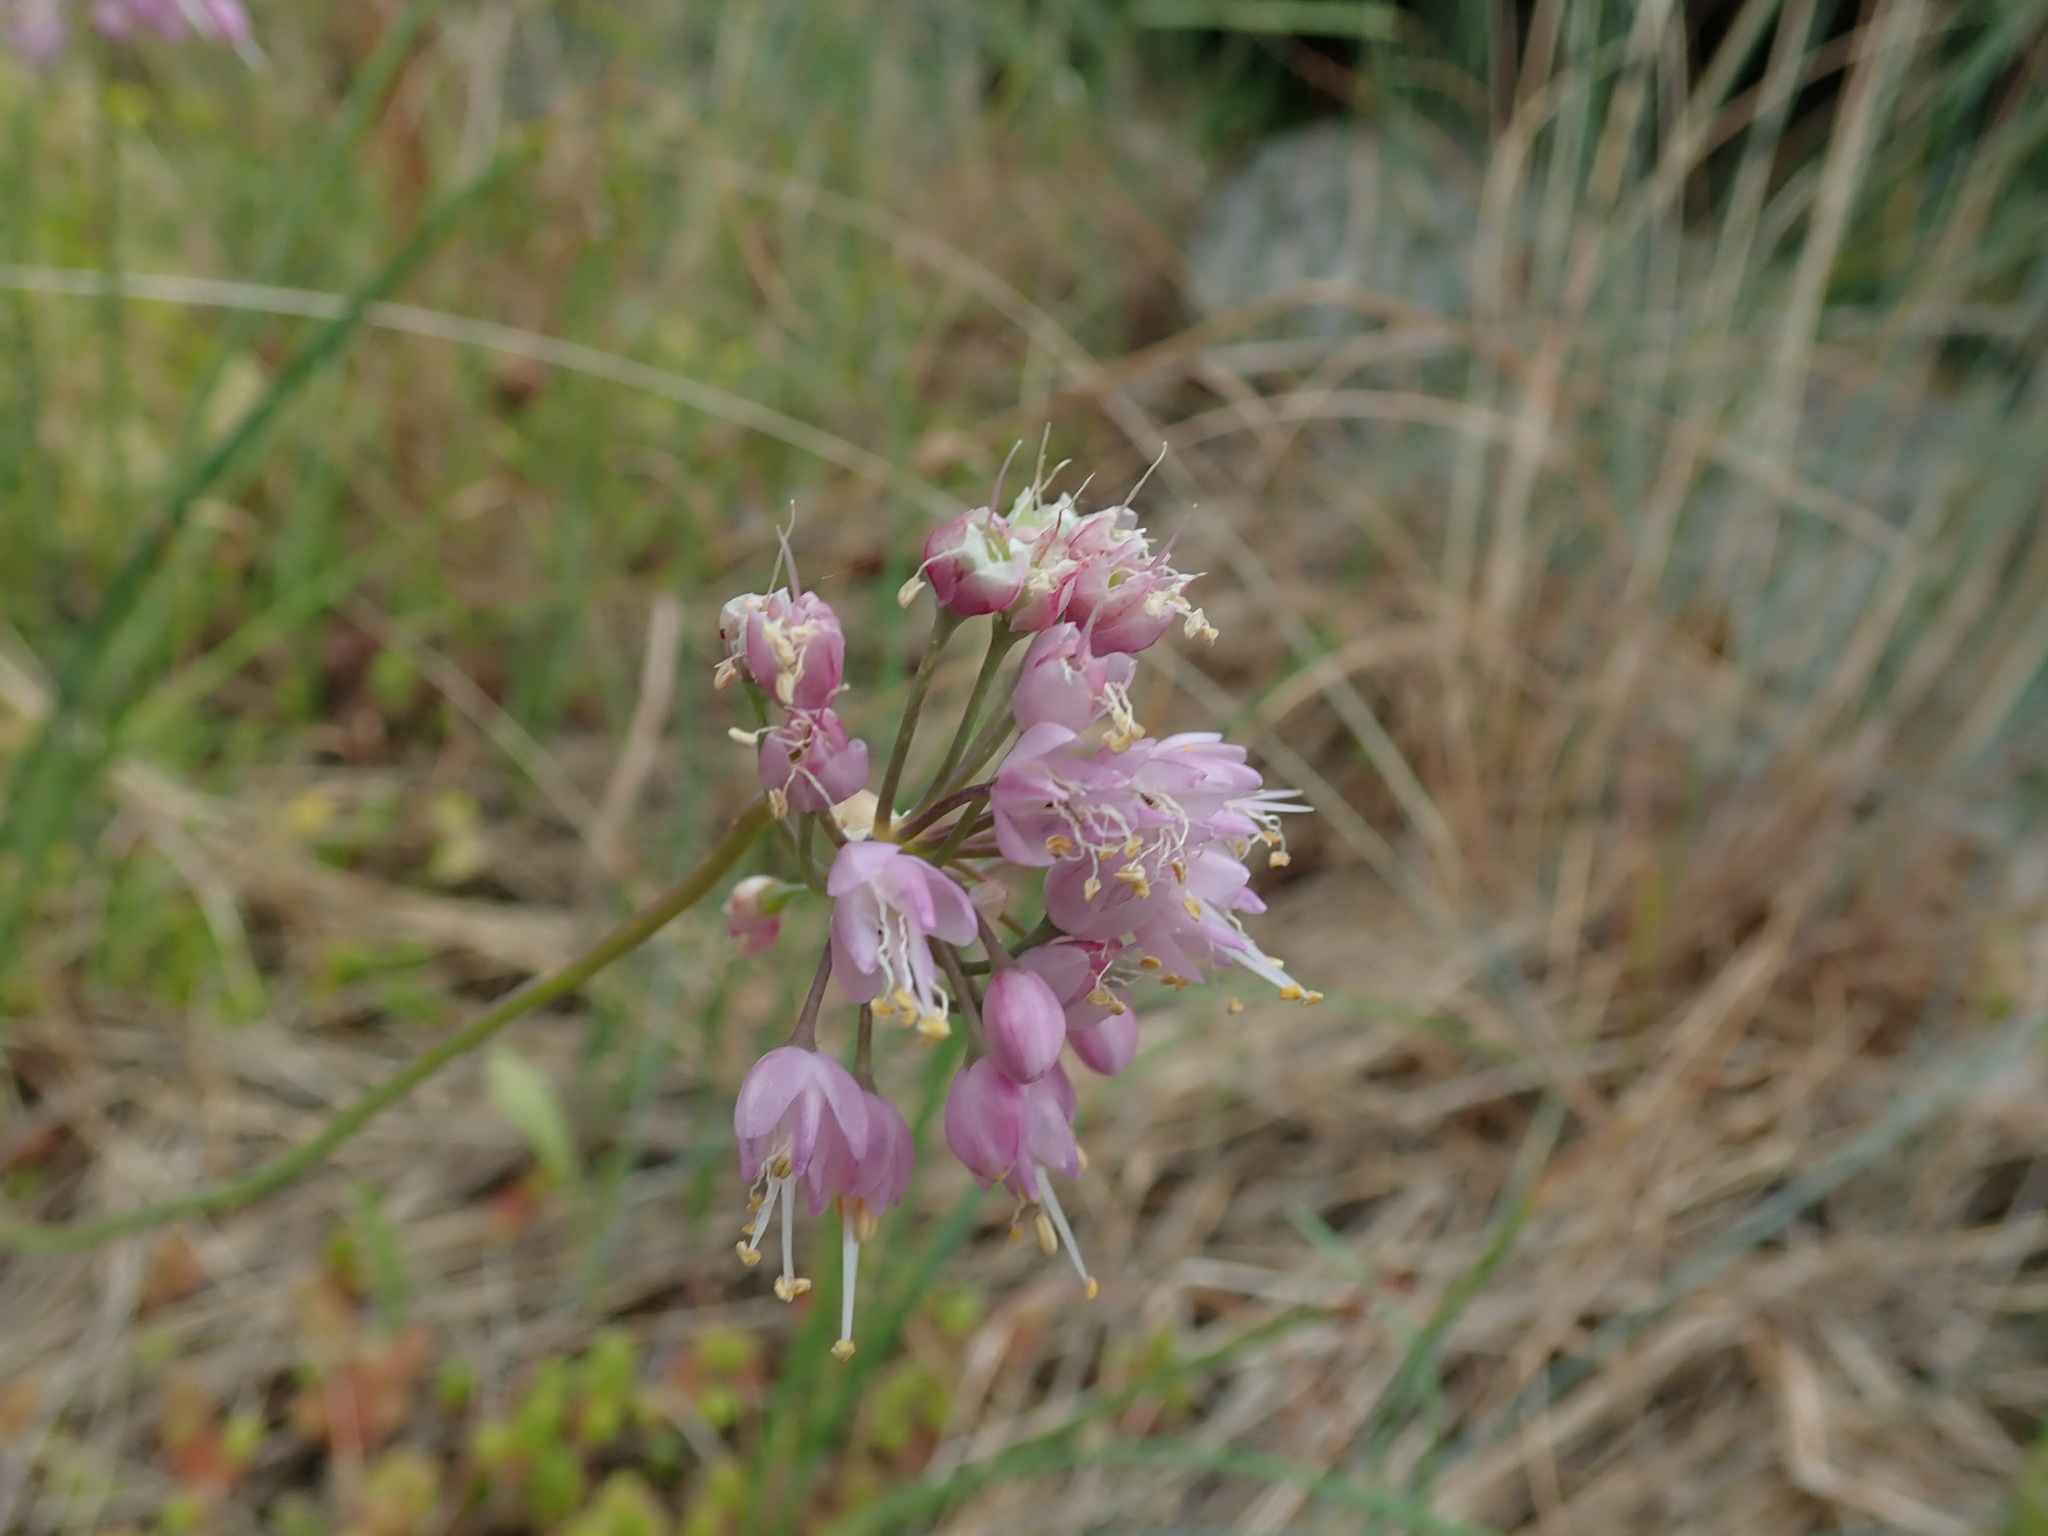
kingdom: Plantae
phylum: Tracheophyta
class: Liliopsida
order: Asparagales
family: Amaryllidaceae
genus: Allium
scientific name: Allium cernuum
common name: Nodding onion
